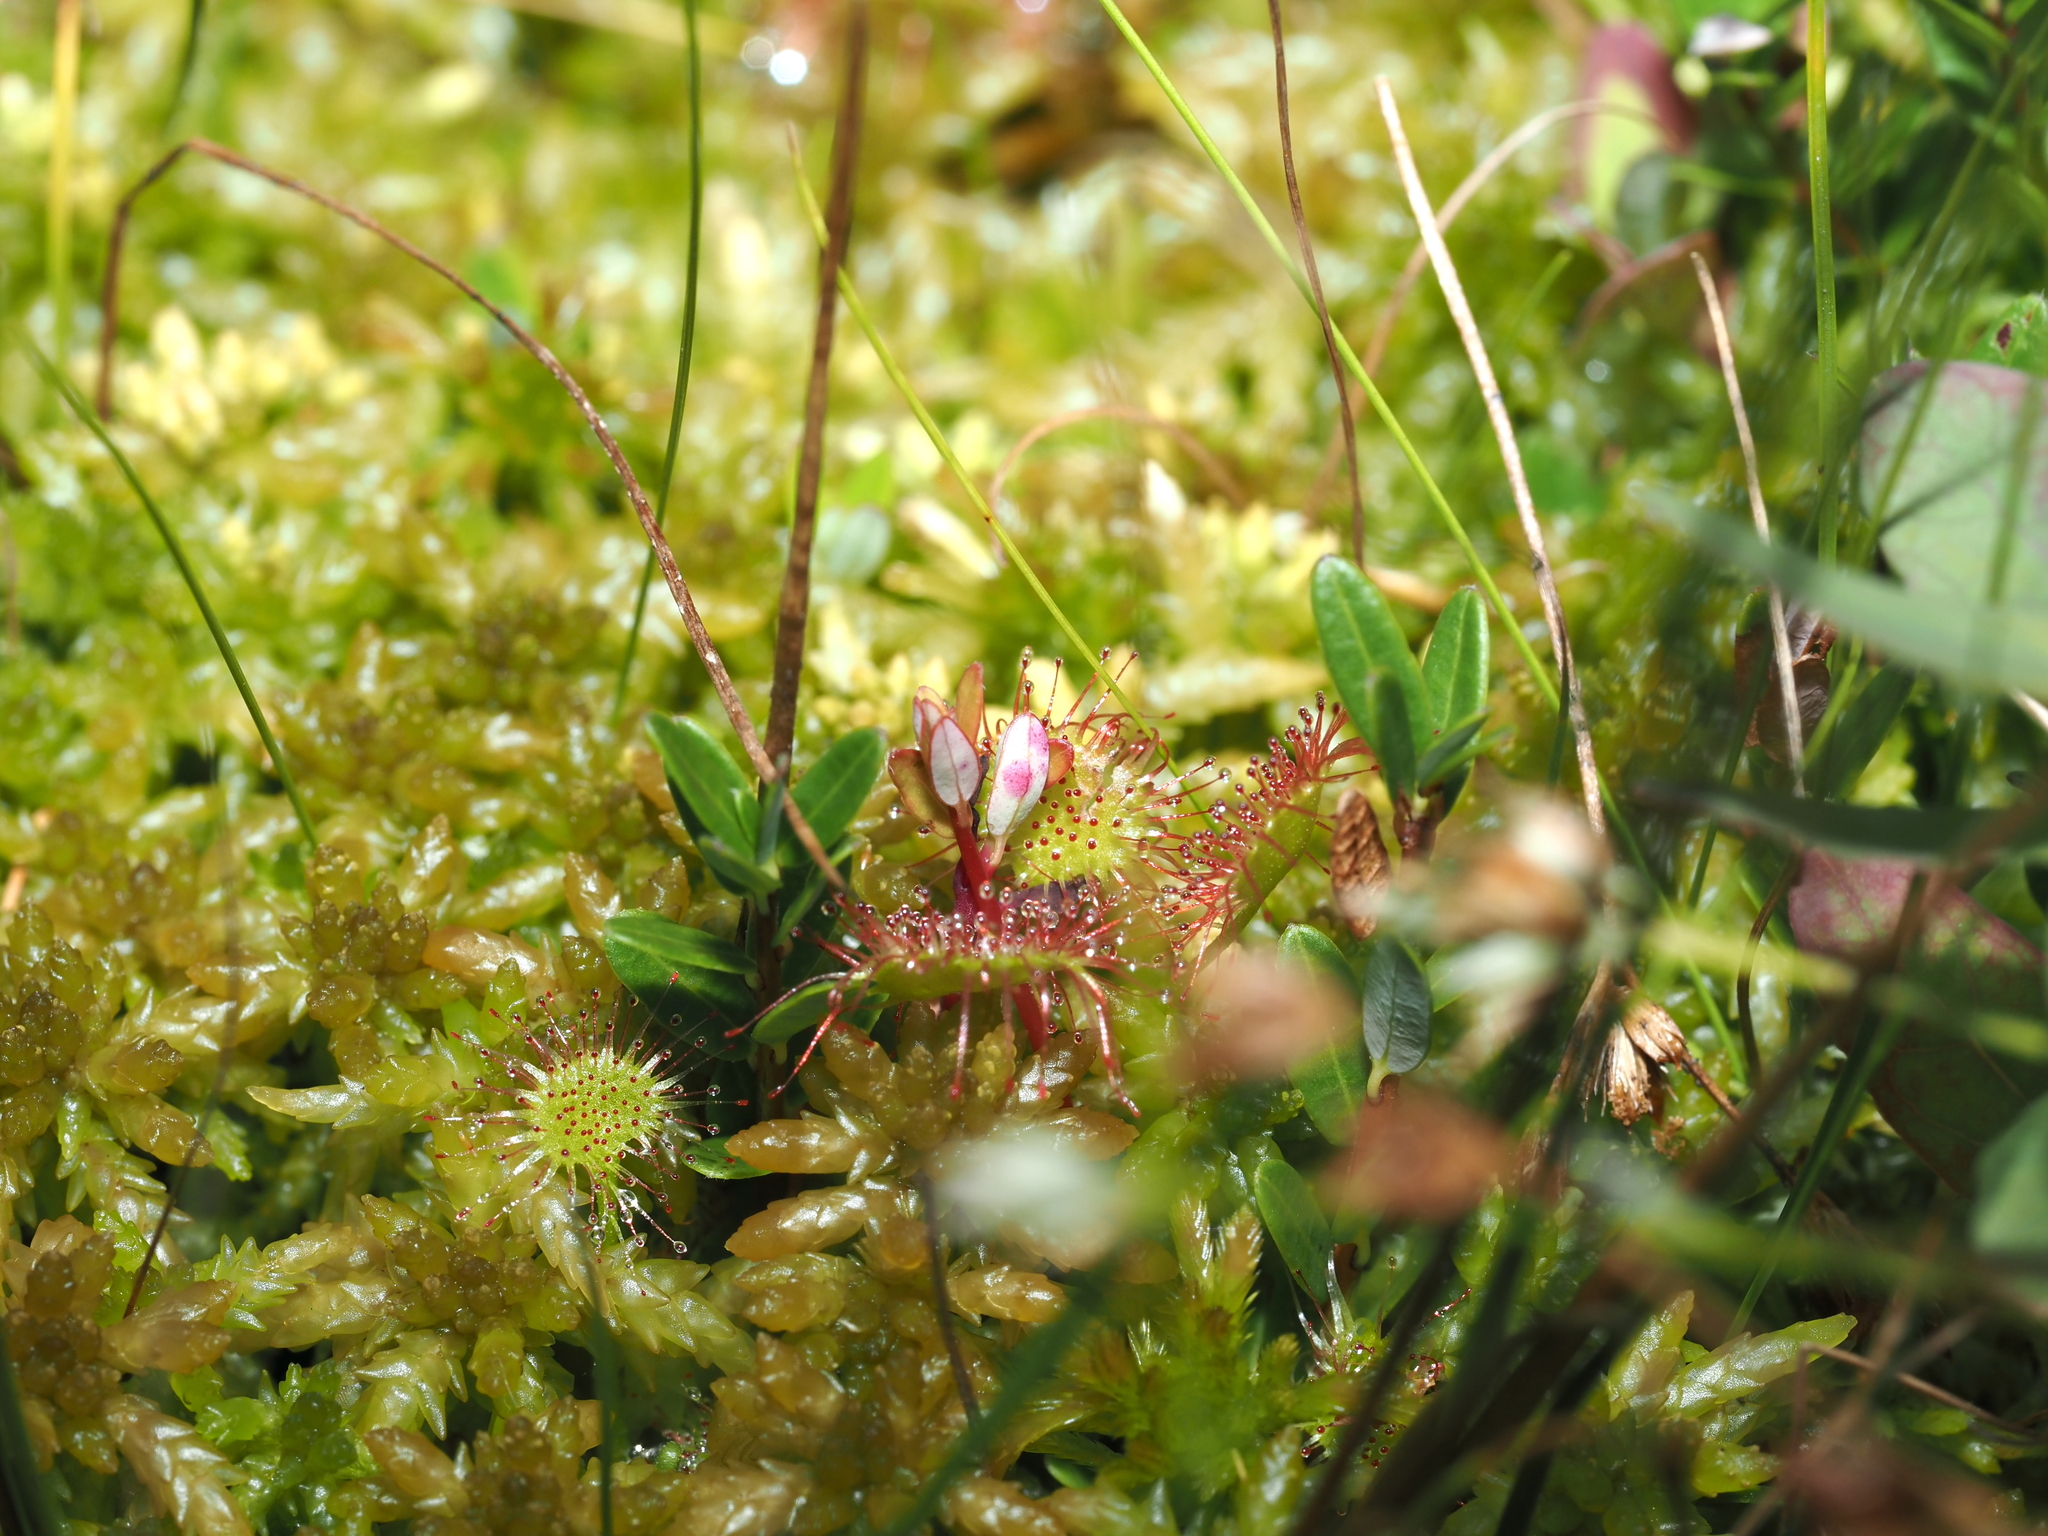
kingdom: Plantae
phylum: Tracheophyta
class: Magnoliopsida
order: Caryophyllales
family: Droseraceae
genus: Drosera
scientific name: Drosera rotundifolia
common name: Round-leaved sundew
